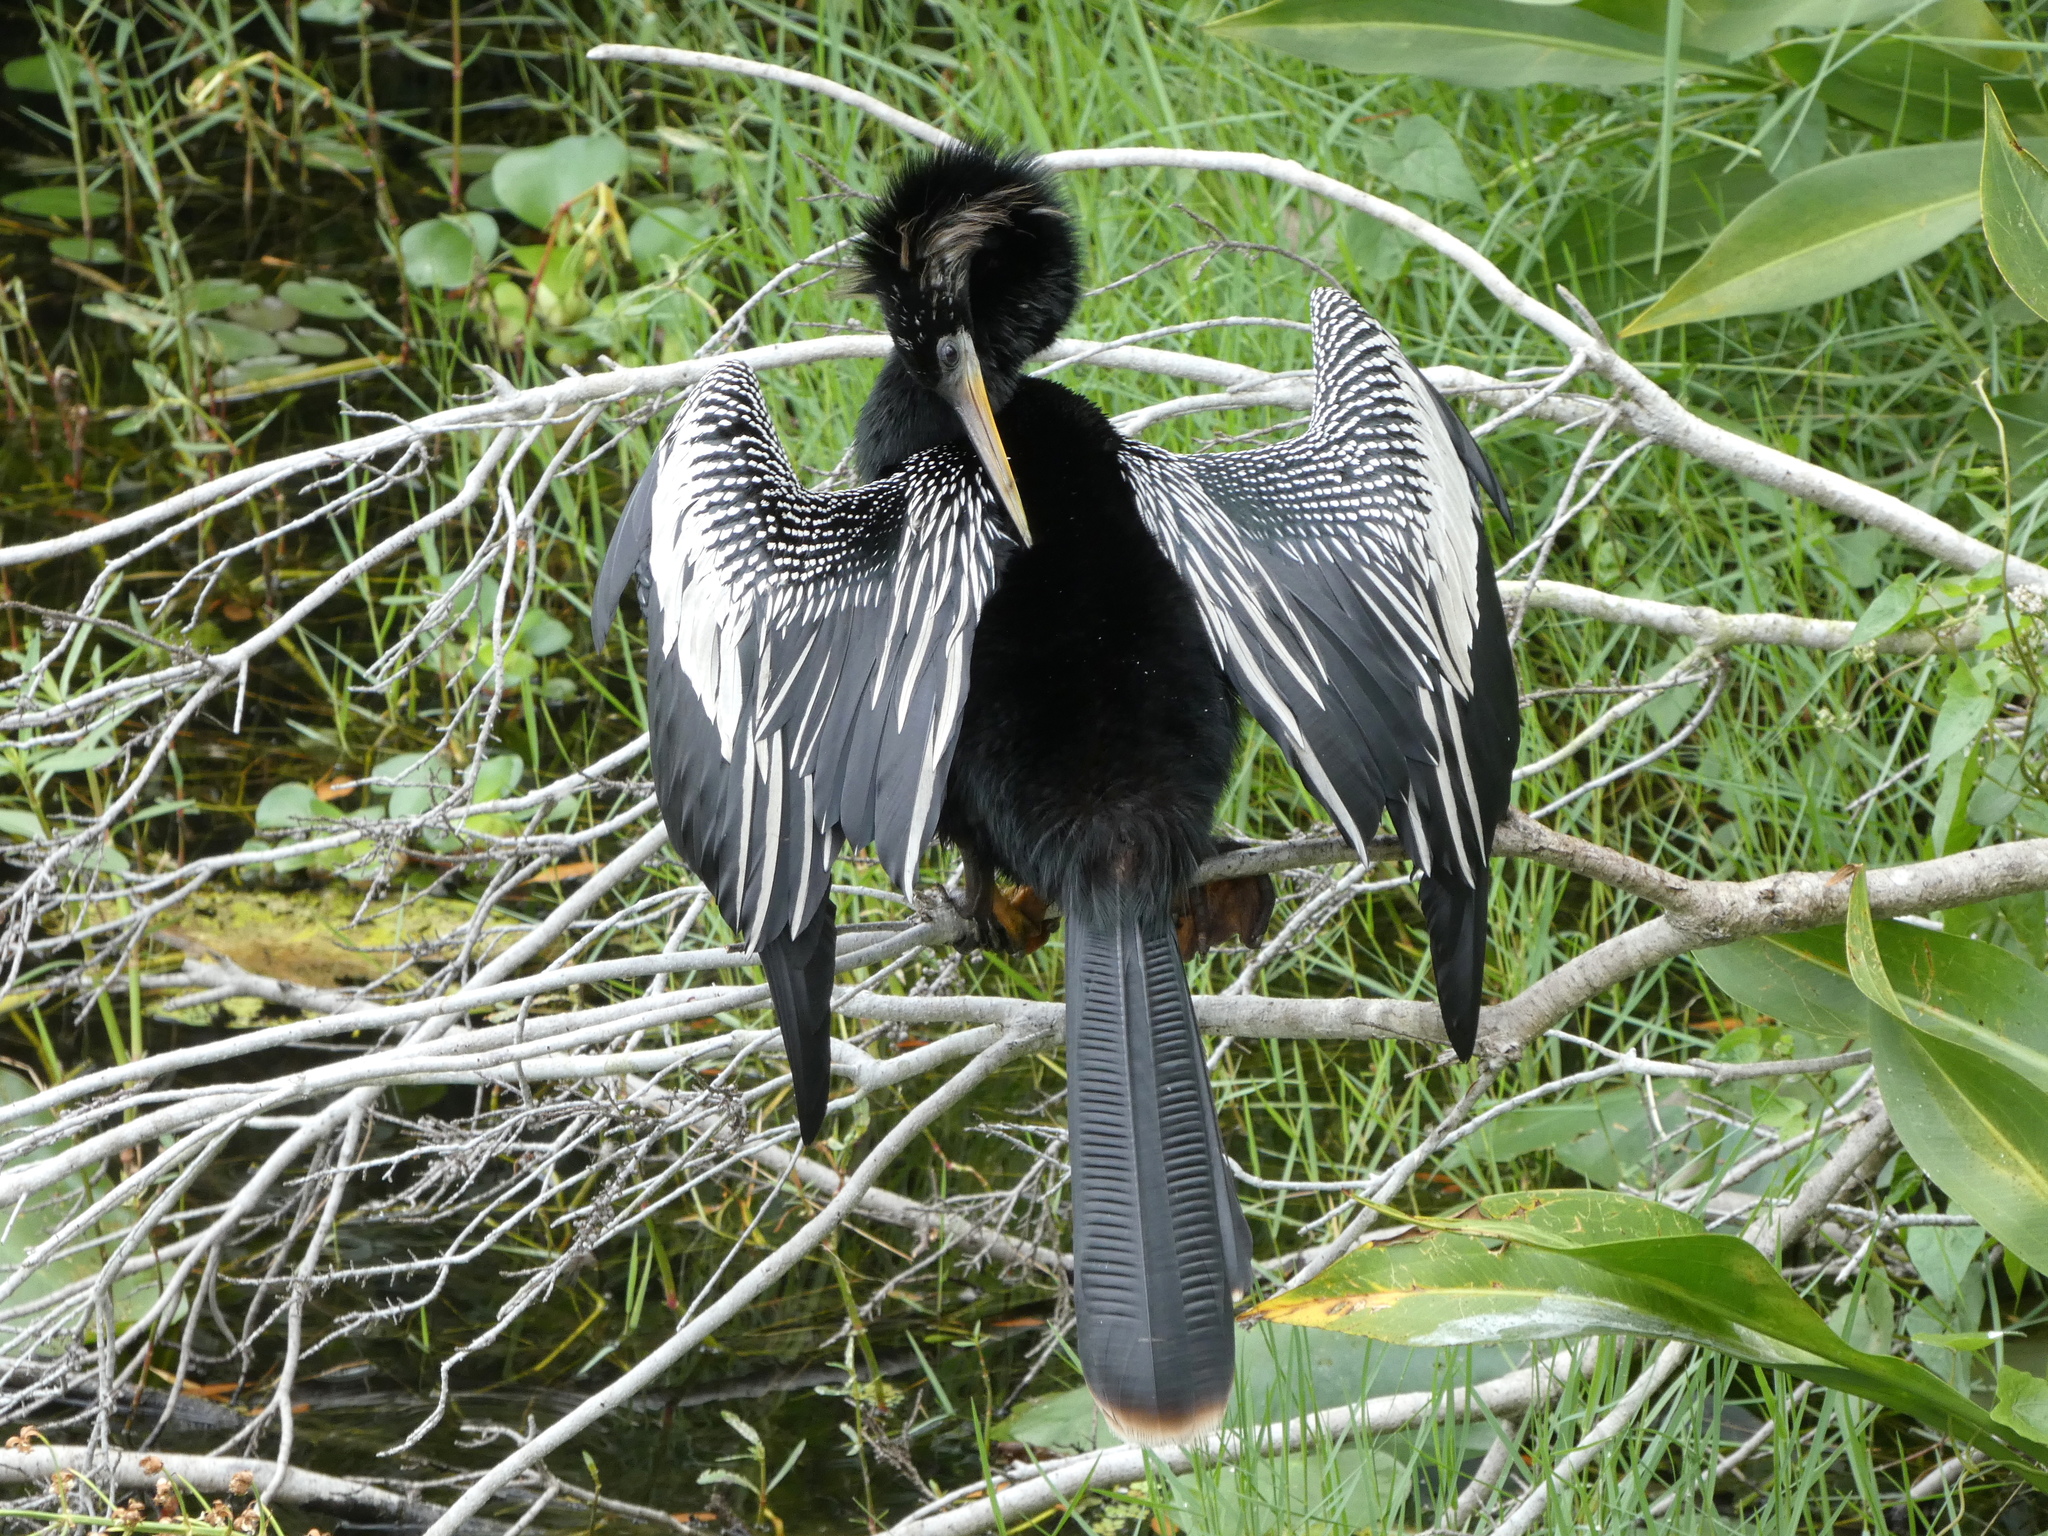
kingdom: Animalia
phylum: Chordata
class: Aves
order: Suliformes
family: Anhingidae
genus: Anhinga
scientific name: Anhinga anhinga
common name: Anhinga
